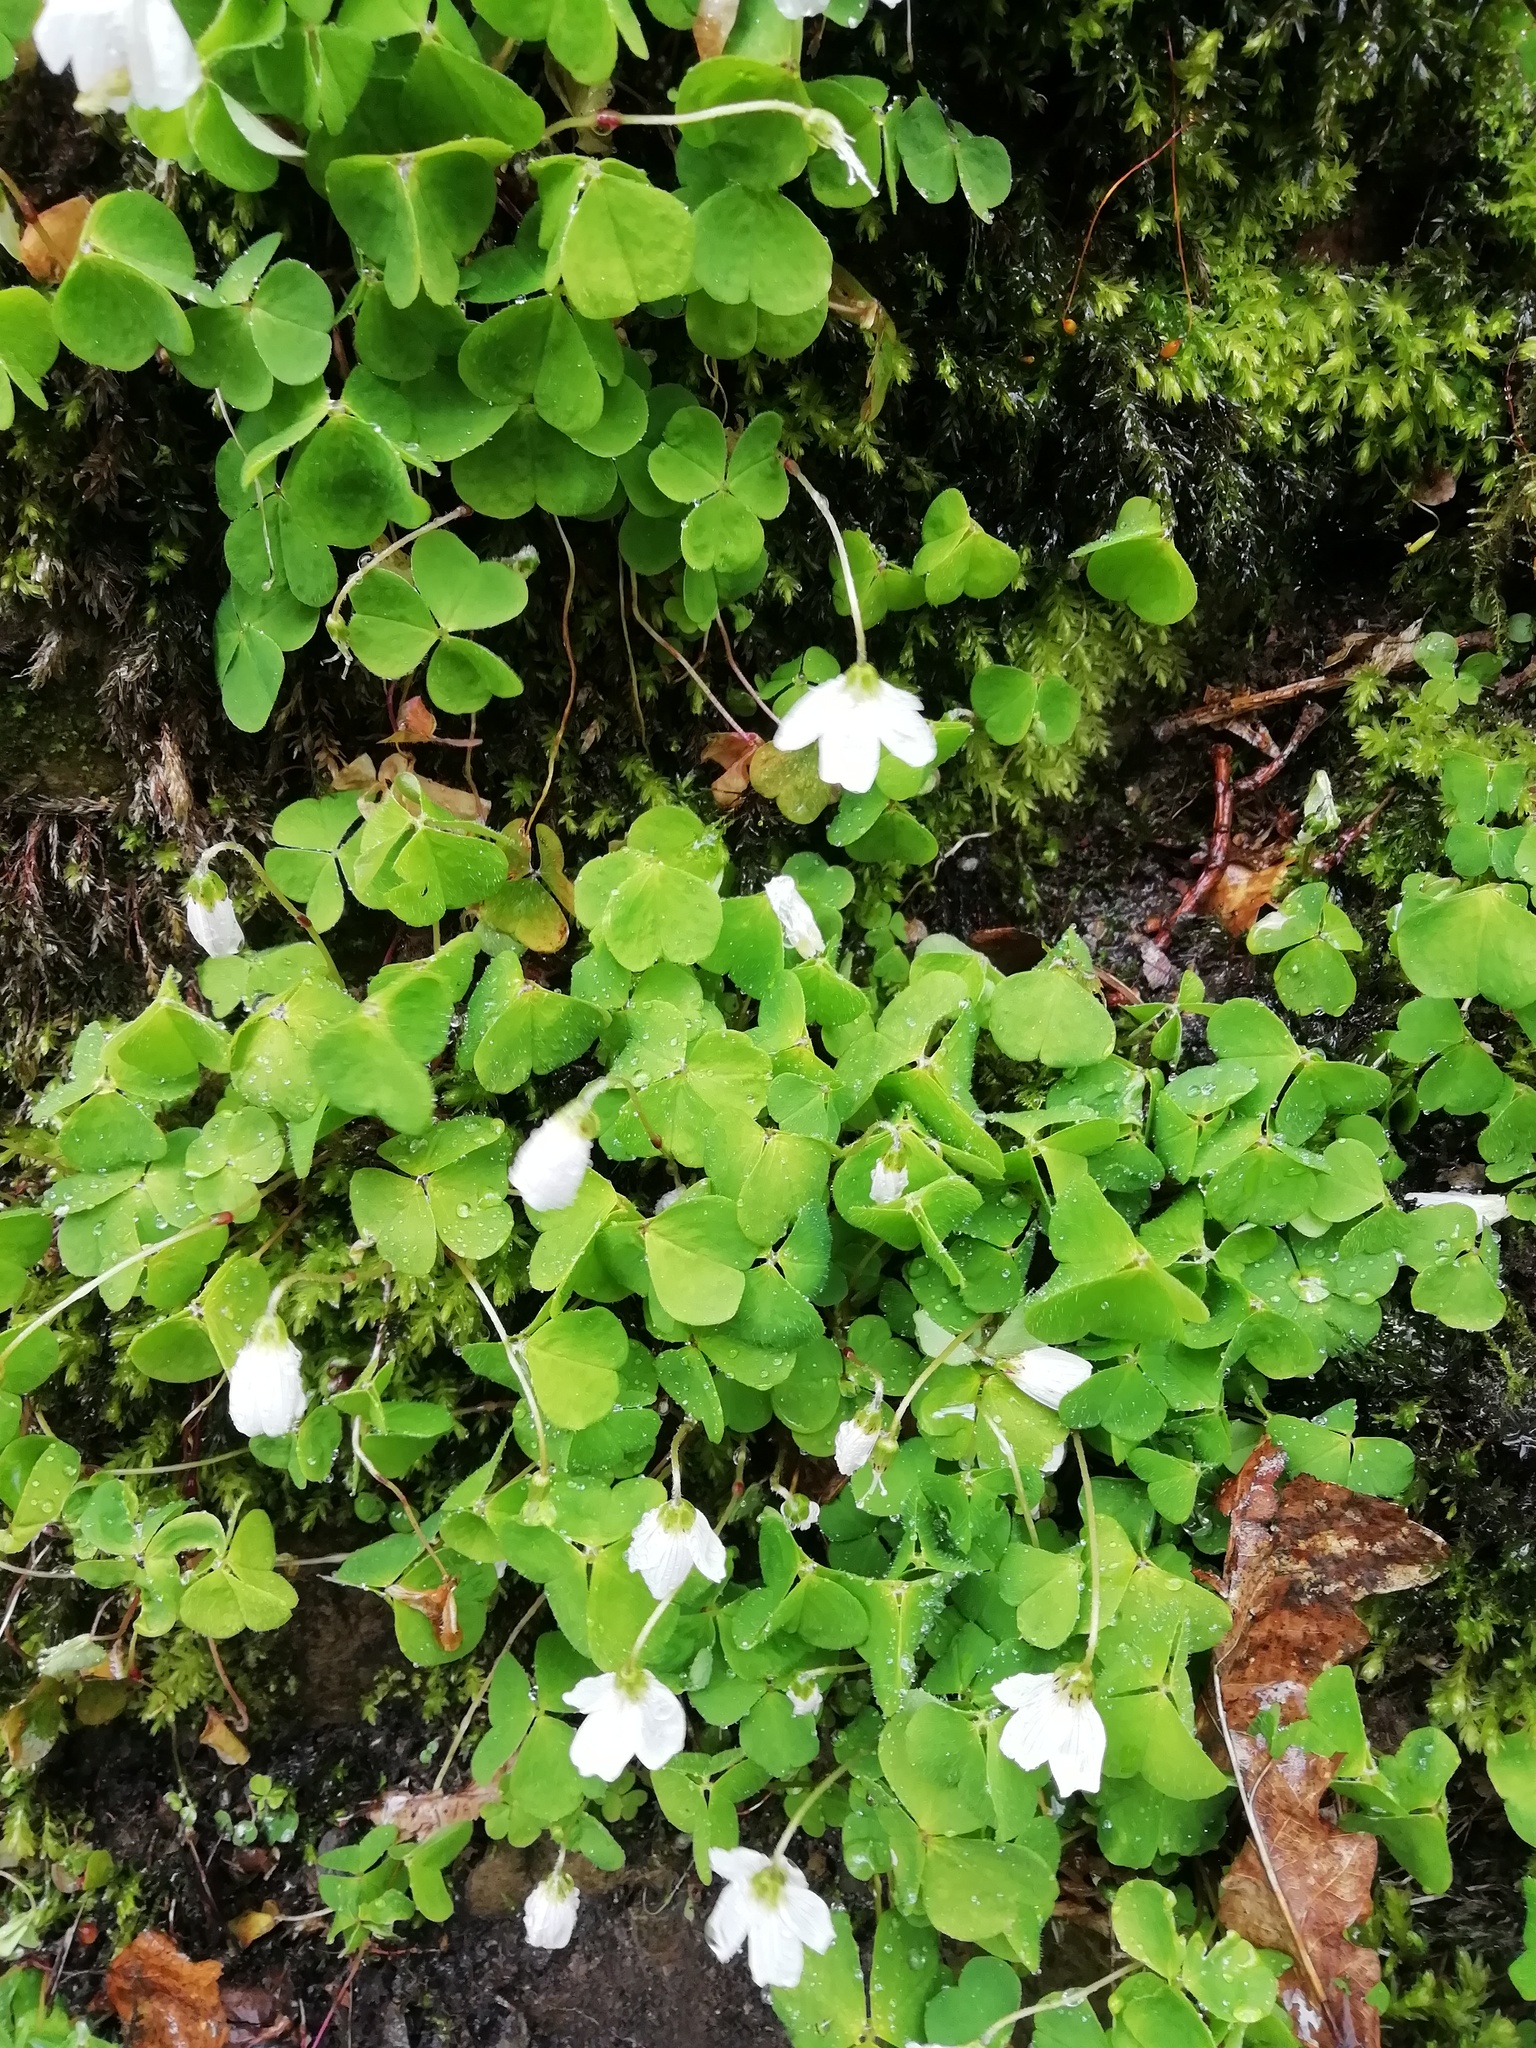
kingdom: Plantae
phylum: Tracheophyta
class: Magnoliopsida
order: Oxalidales
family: Oxalidaceae
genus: Oxalis
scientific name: Oxalis acetosella
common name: Wood-sorrel
